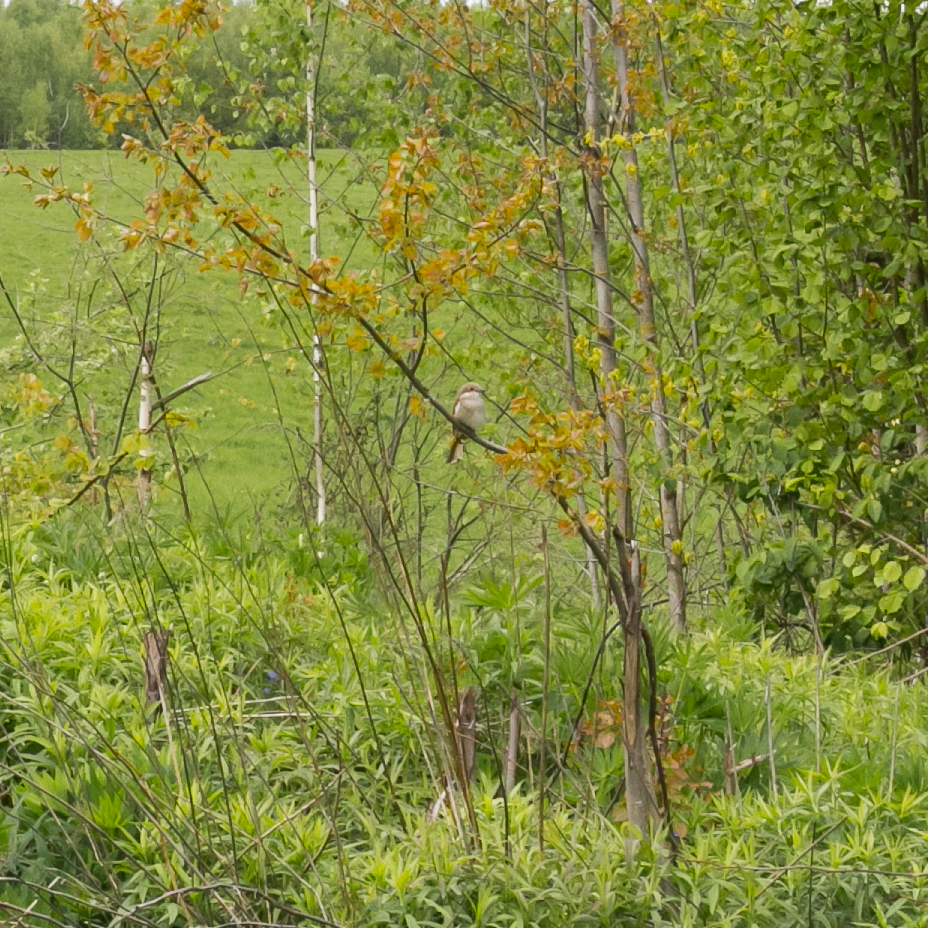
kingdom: Animalia
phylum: Chordata
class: Aves
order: Passeriformes
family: Laniidae
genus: Lanius
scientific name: Lanius collurio
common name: Red-backed shrike
